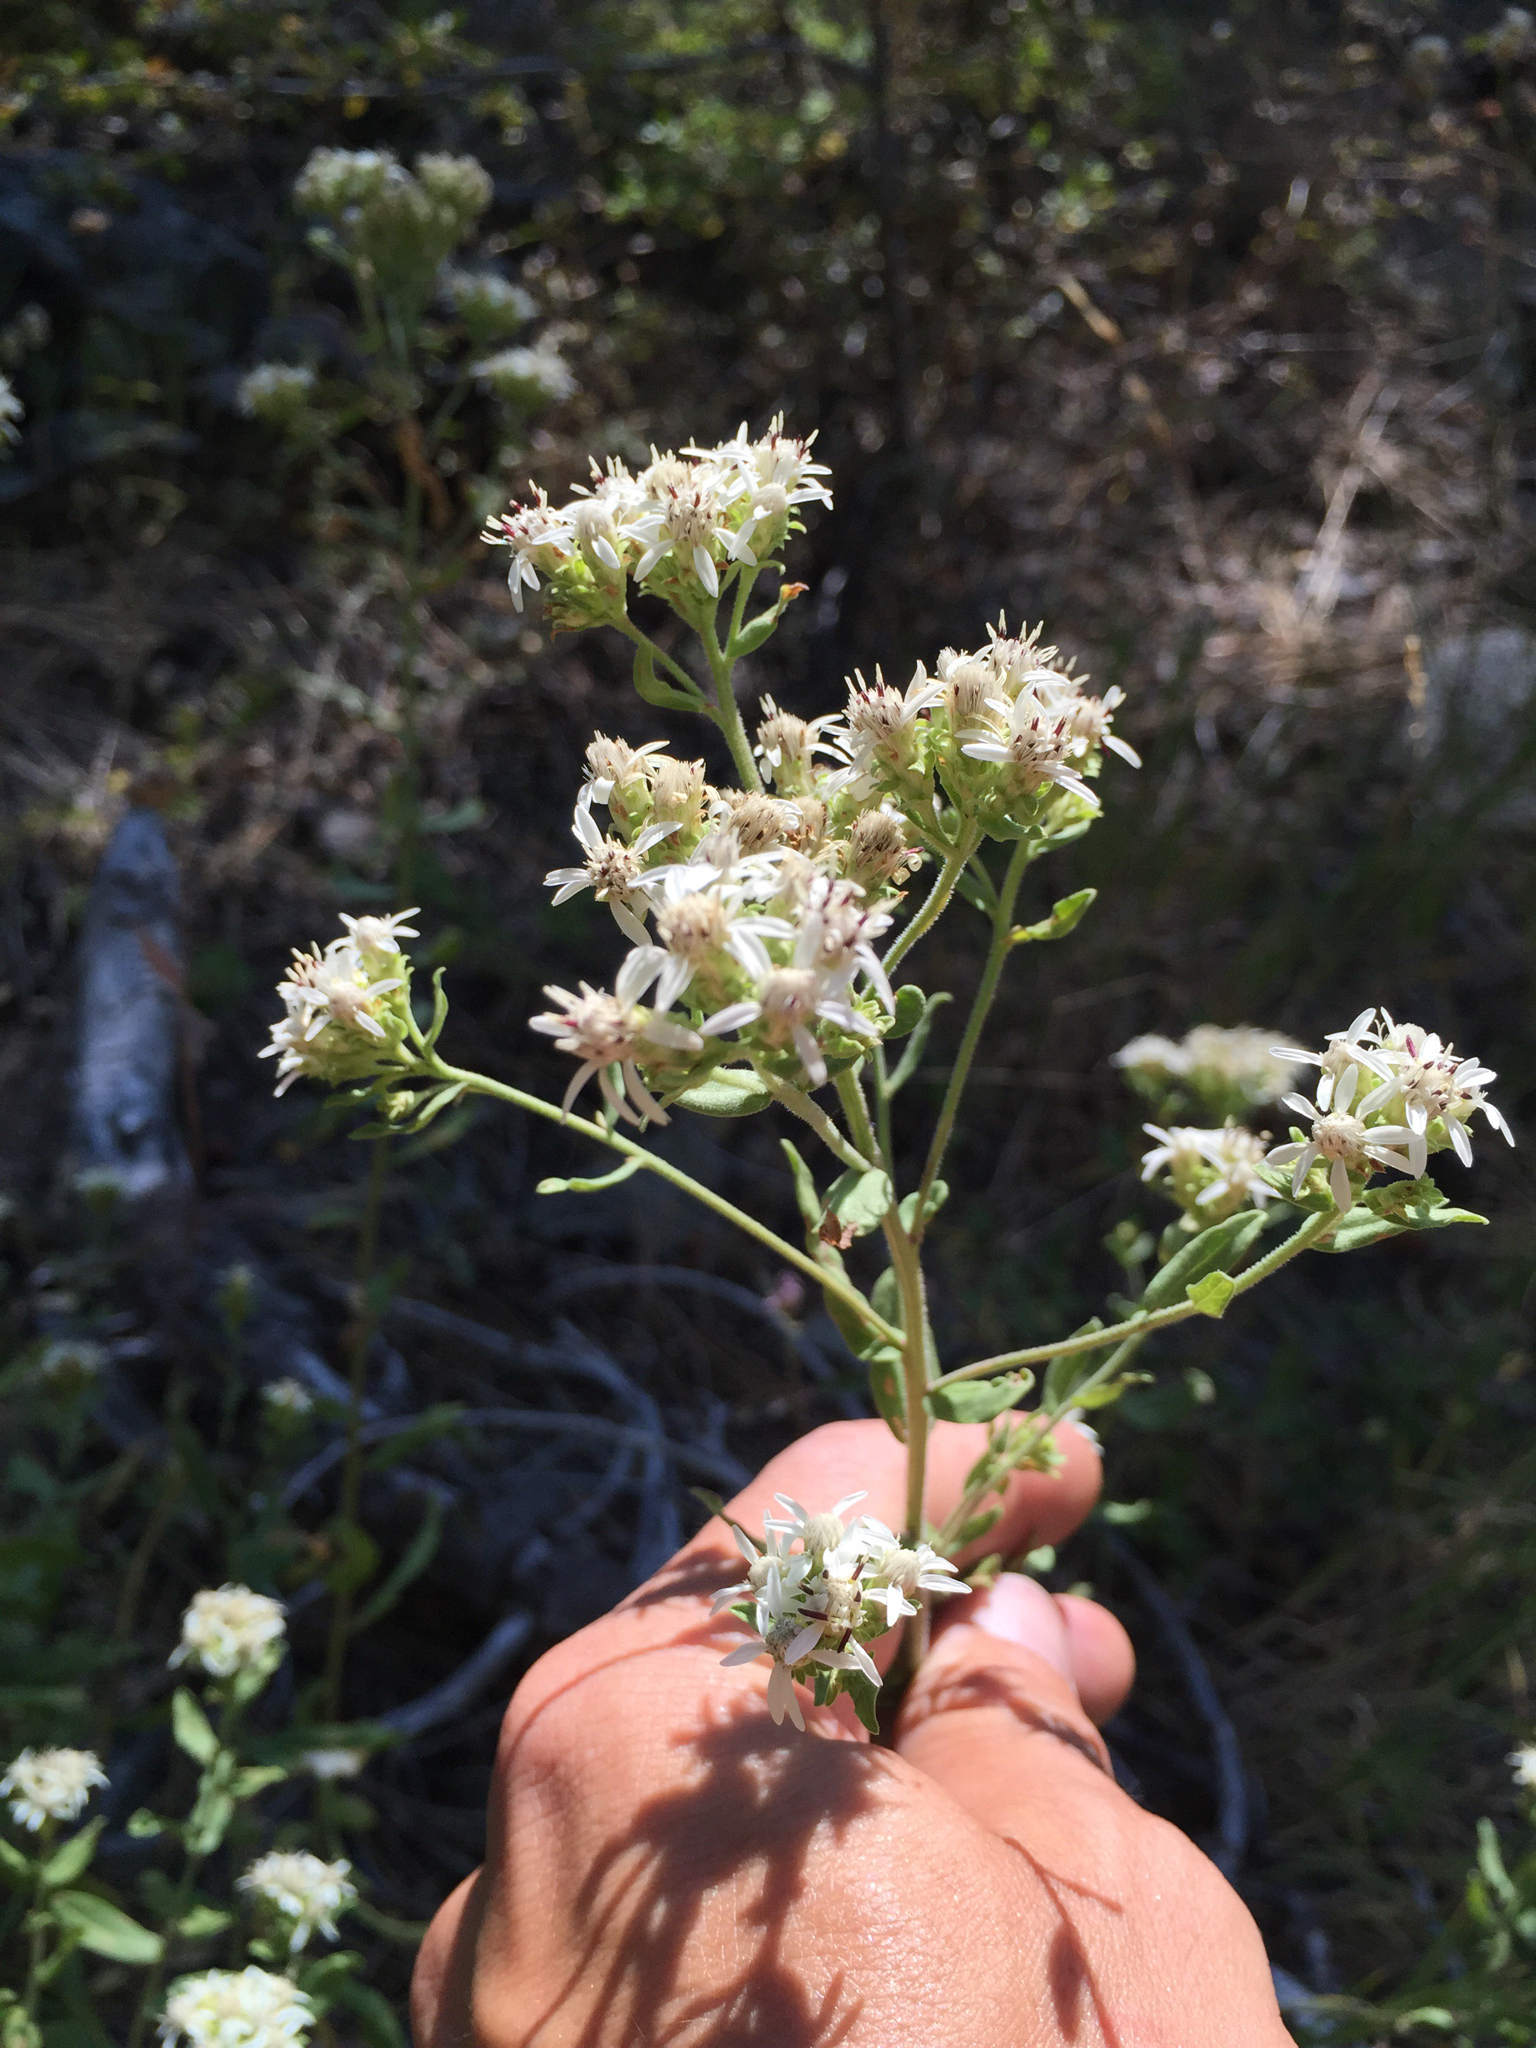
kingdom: Plantae
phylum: Tracheophyta
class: Magnoliopsida
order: Asterales
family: Asteraceae
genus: Sericocarpus
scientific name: Sericocarpus californicus
